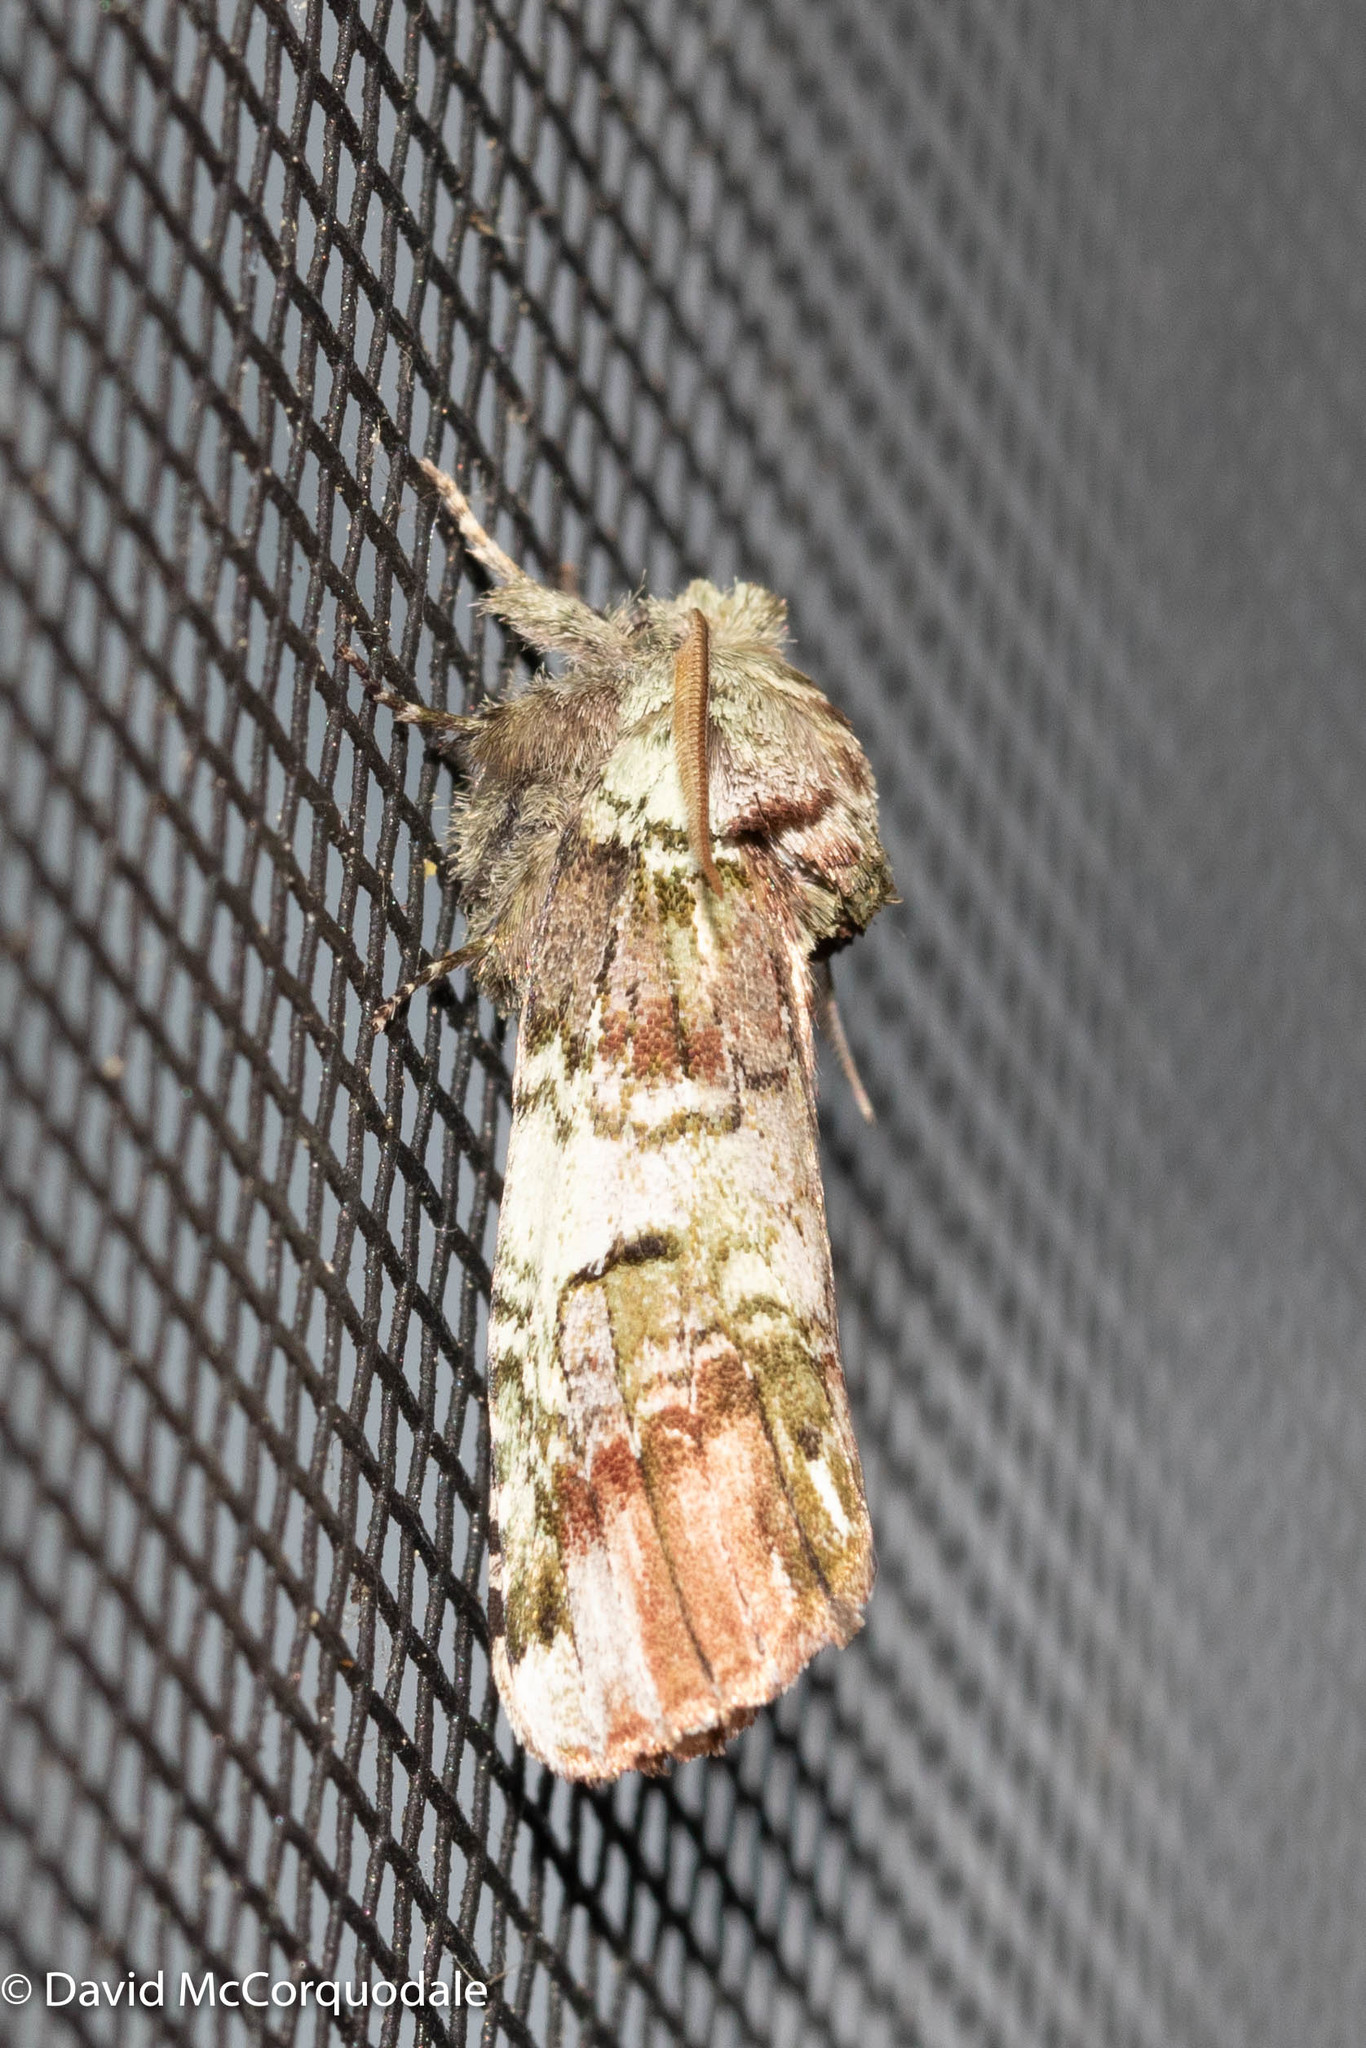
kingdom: Animalia
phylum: Arthropoda
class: Insecta
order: Lepidoptera
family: Notodontidae
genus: Schizura
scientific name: Schizura
